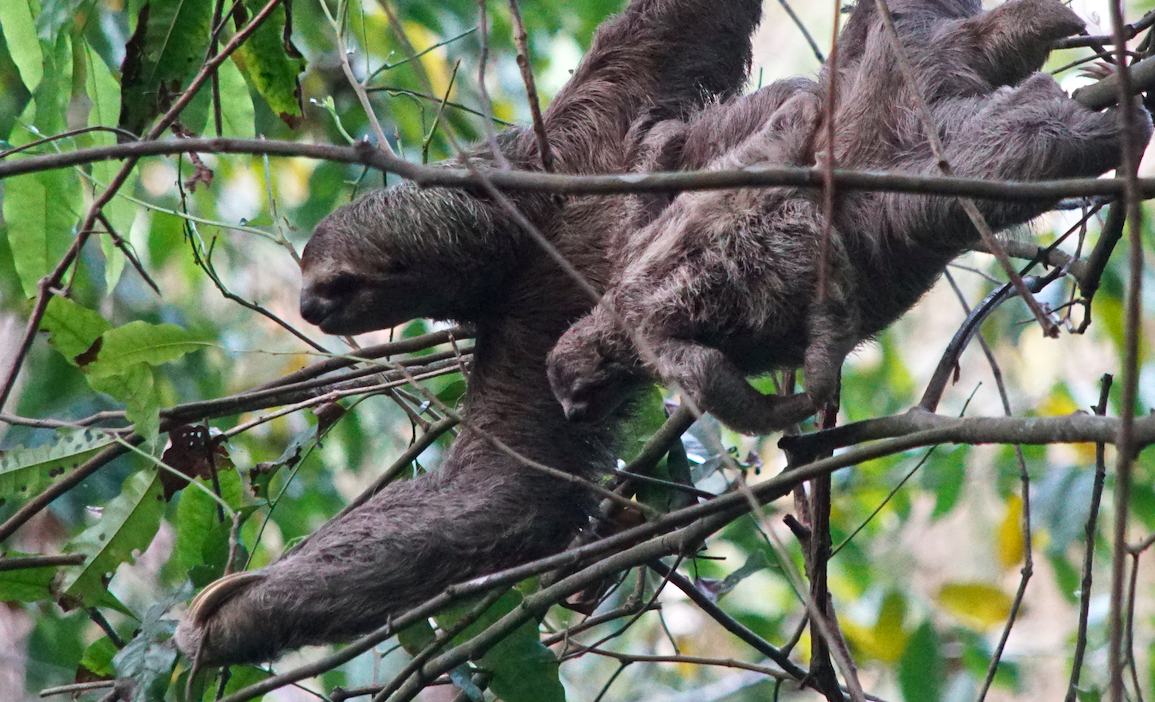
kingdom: Animalia
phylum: Chordata
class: Mammalia
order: Pilosa
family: Bradypodidae
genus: Bradypus
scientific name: Bradypus variegatus
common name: Brown-throated three-toed sloth
